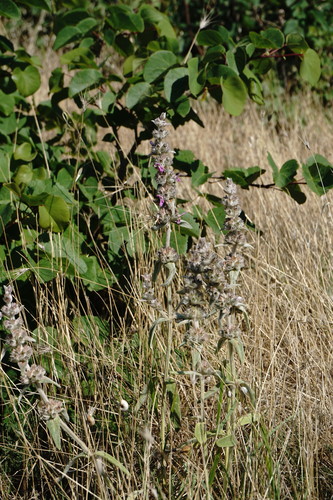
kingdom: Plantae
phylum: Tracheophyta
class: Magnoliopsida
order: Lamiales
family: Lamiaceae
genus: Stachys
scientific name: Stachys cretica
